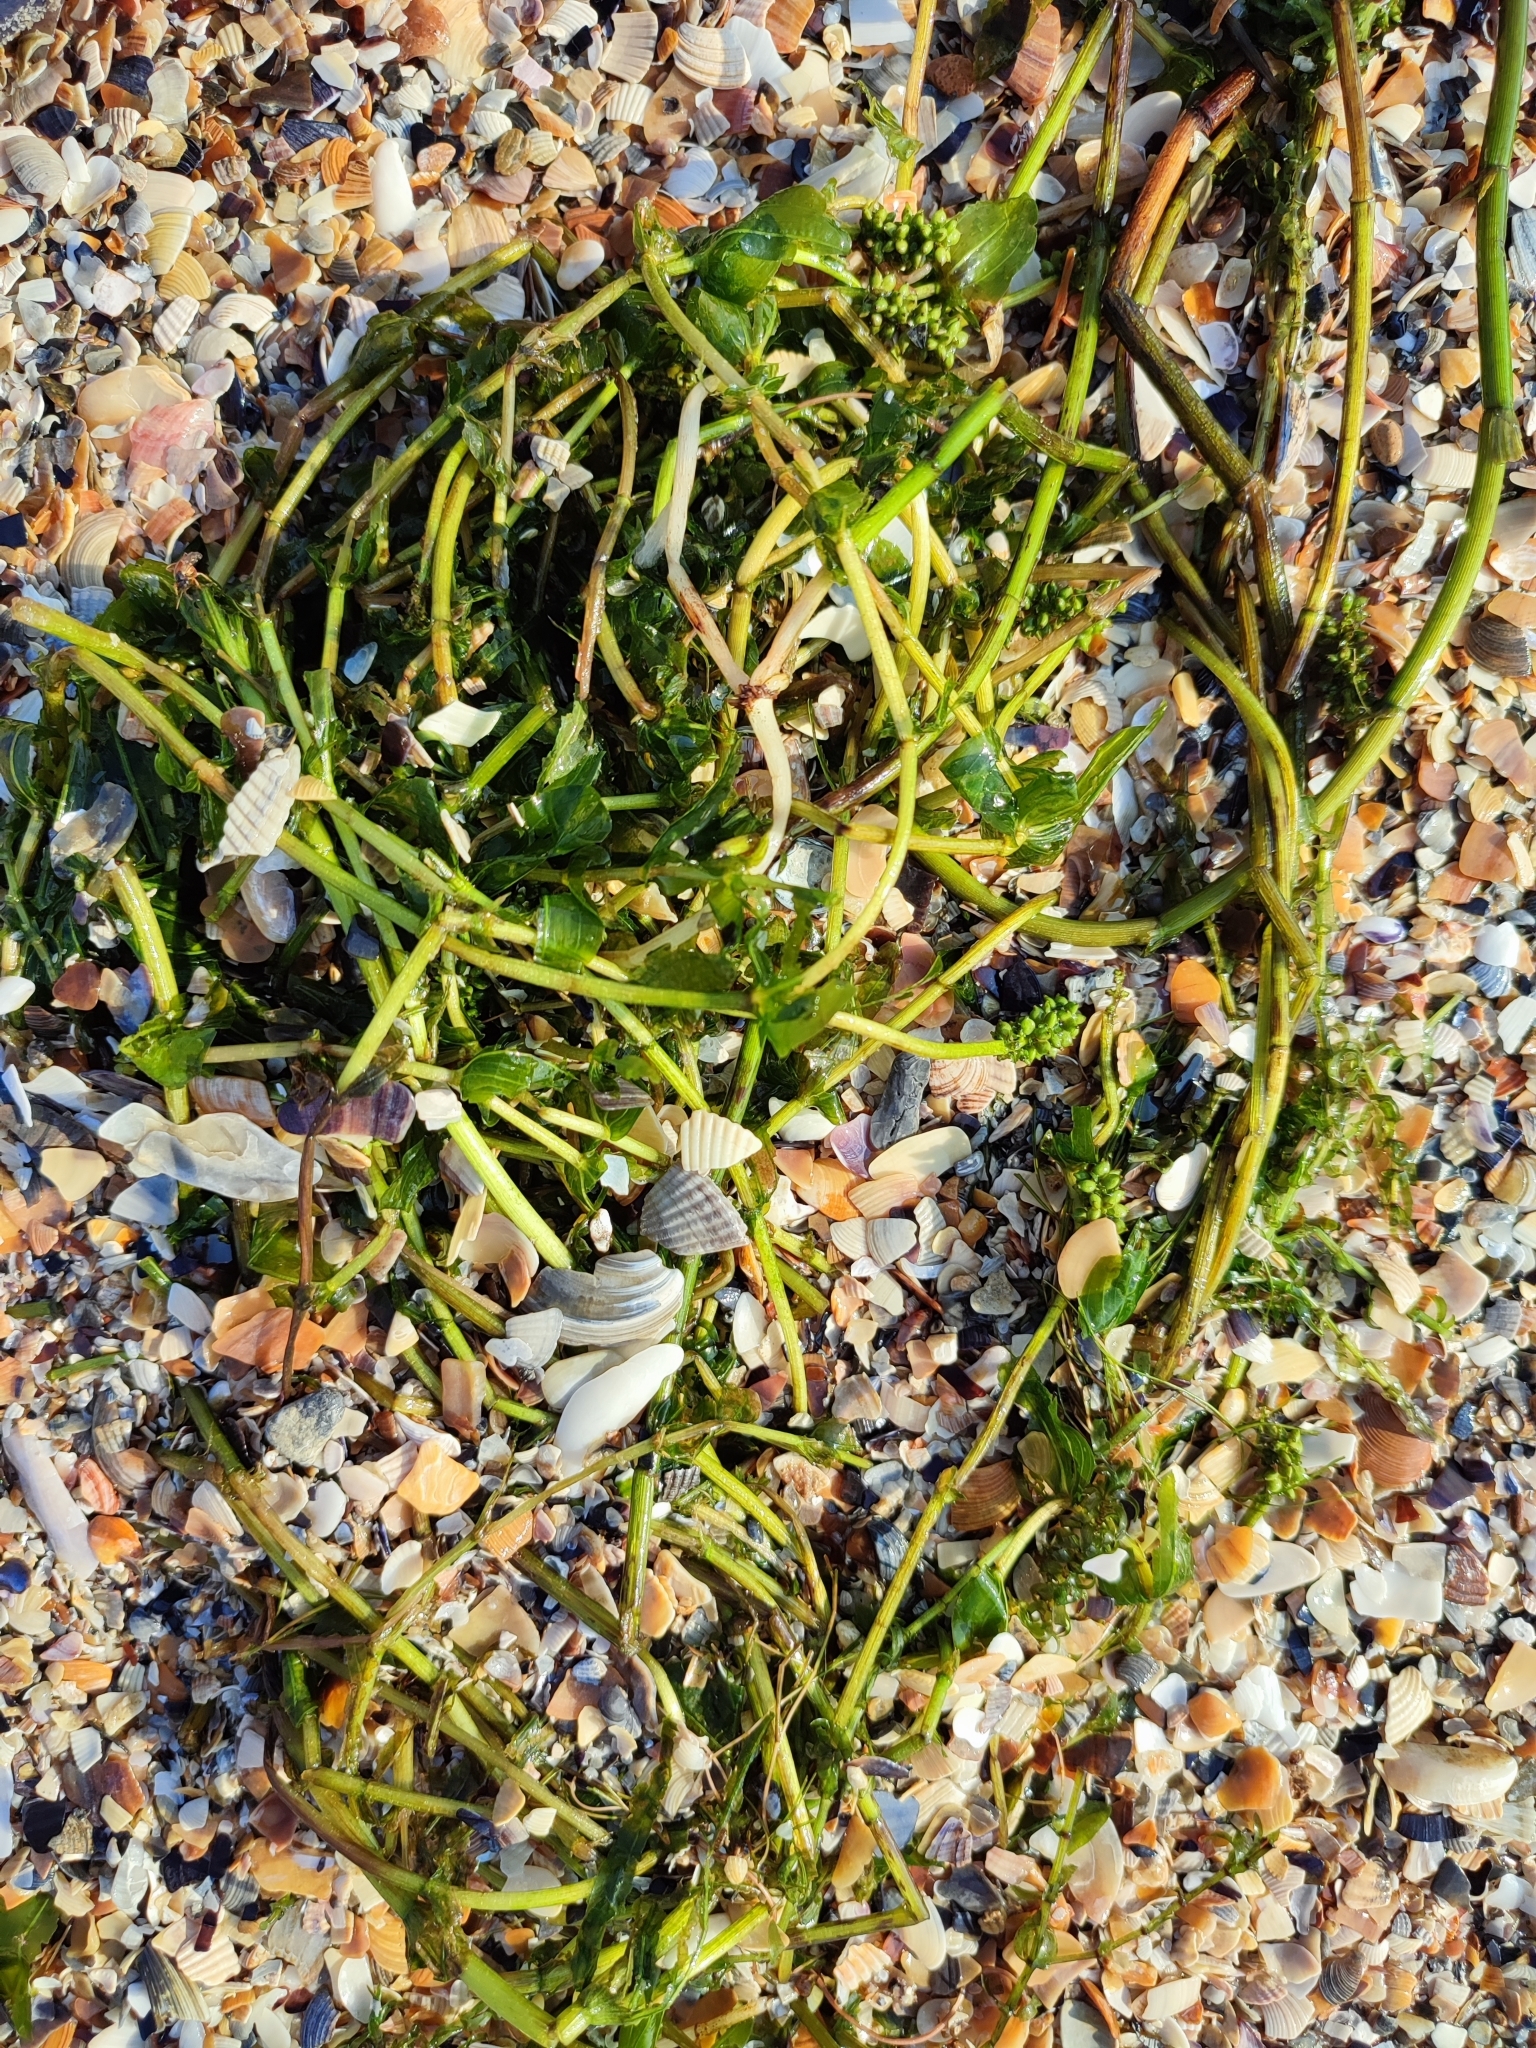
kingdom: Plantae
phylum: Tracheophyta
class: Liliopsida
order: Alismatales
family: Potamogetonaceae
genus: Potamogeton
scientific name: Potamogeton perfoliatus
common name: Perfoliate pondweed
